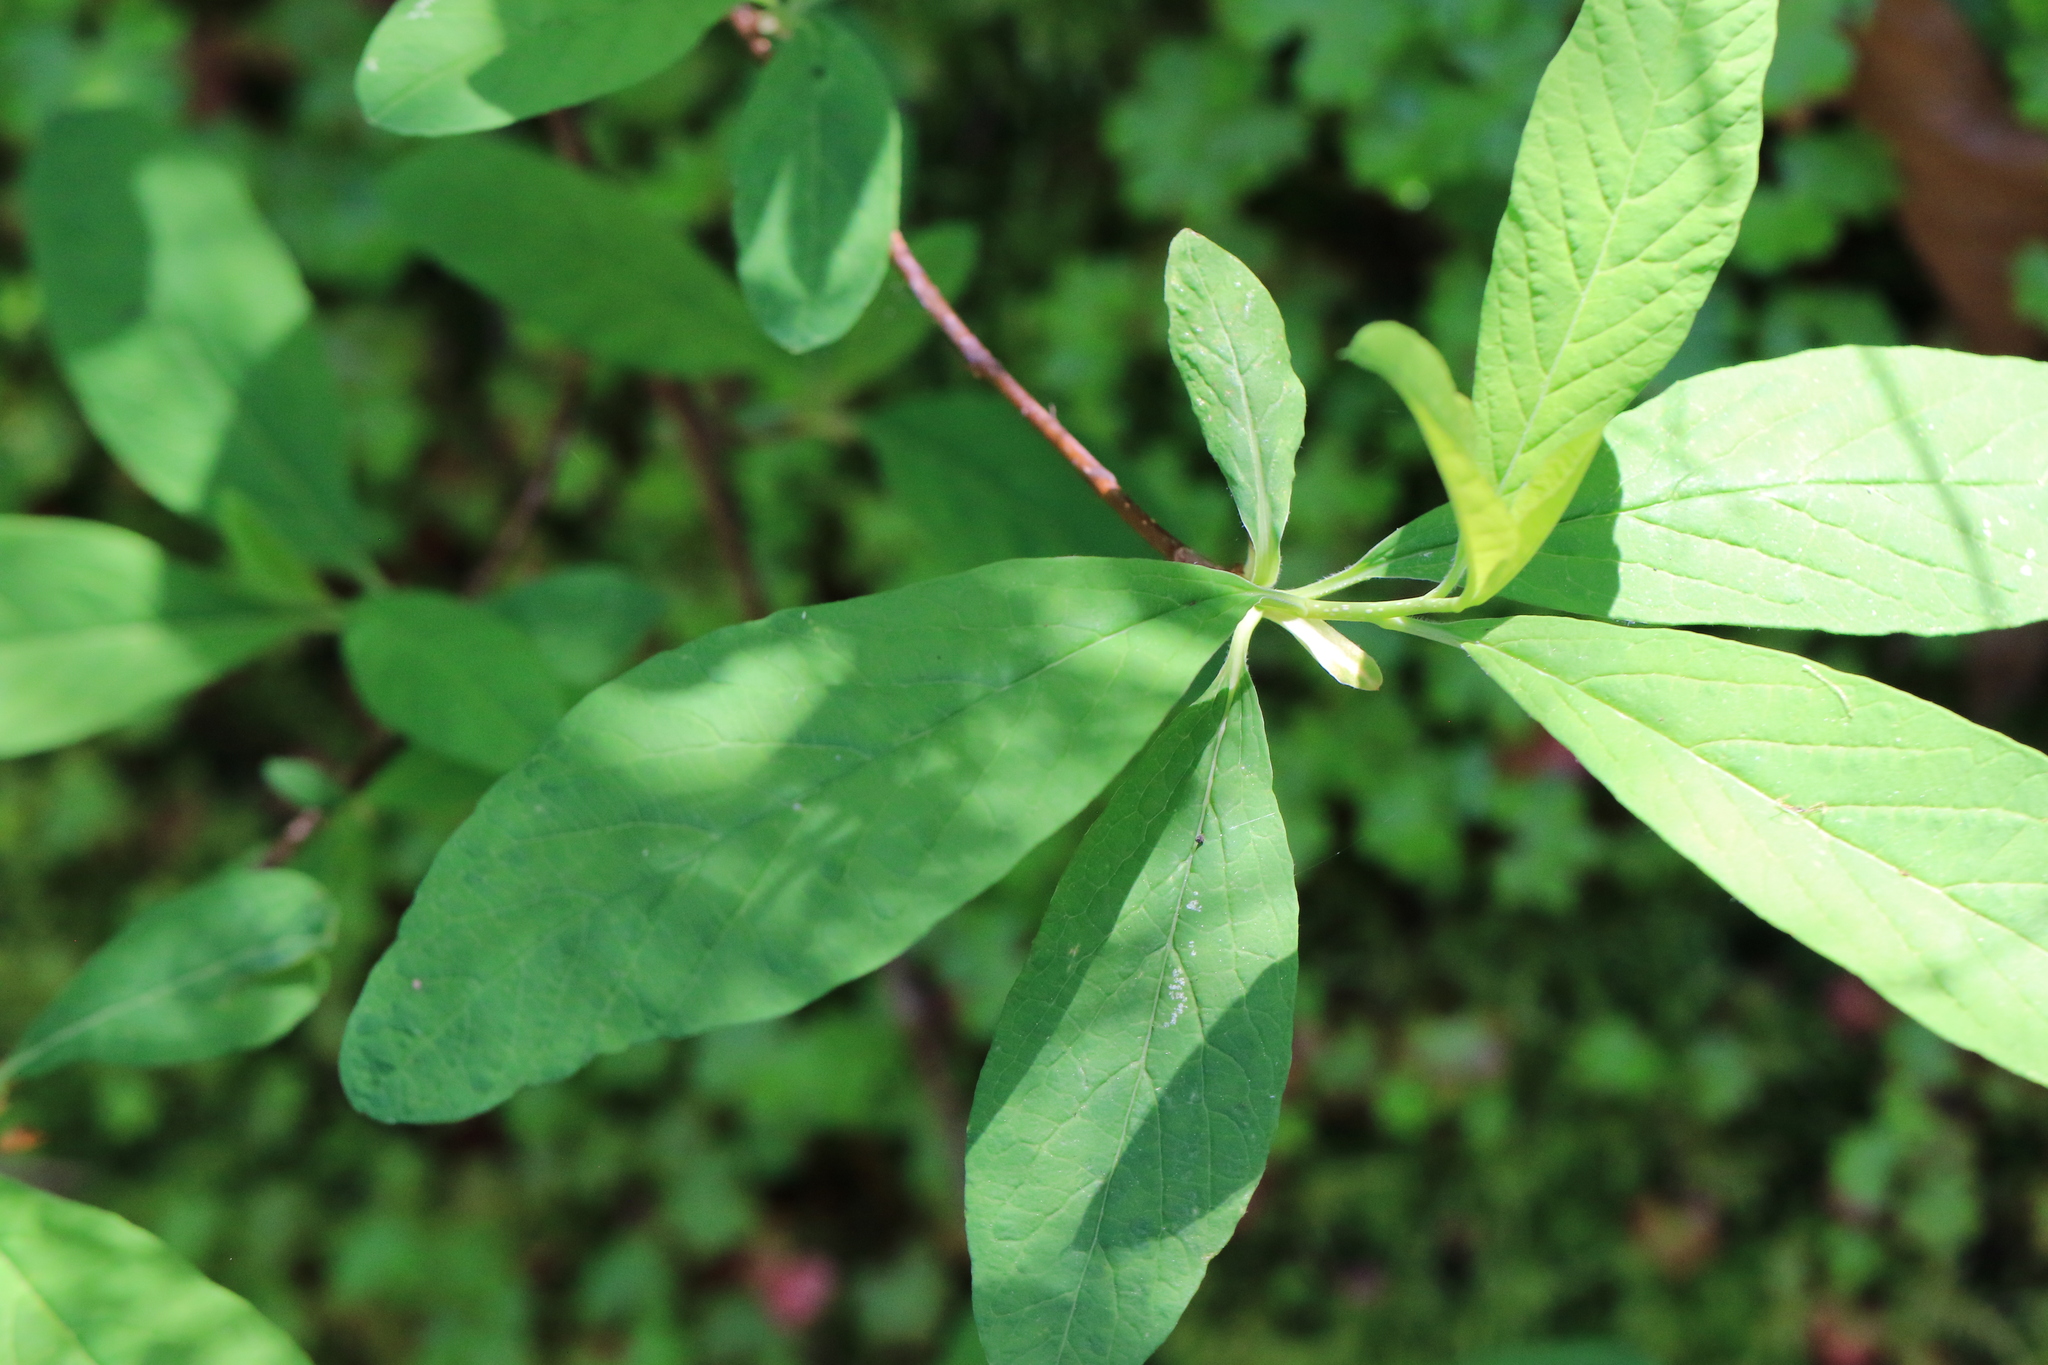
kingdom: Plantae
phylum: Tracheophyta
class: Magnoliopsida
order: Rosales
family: Rosaceae
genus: Oemleria
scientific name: Oemleria cerasiformis
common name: Osoberry
